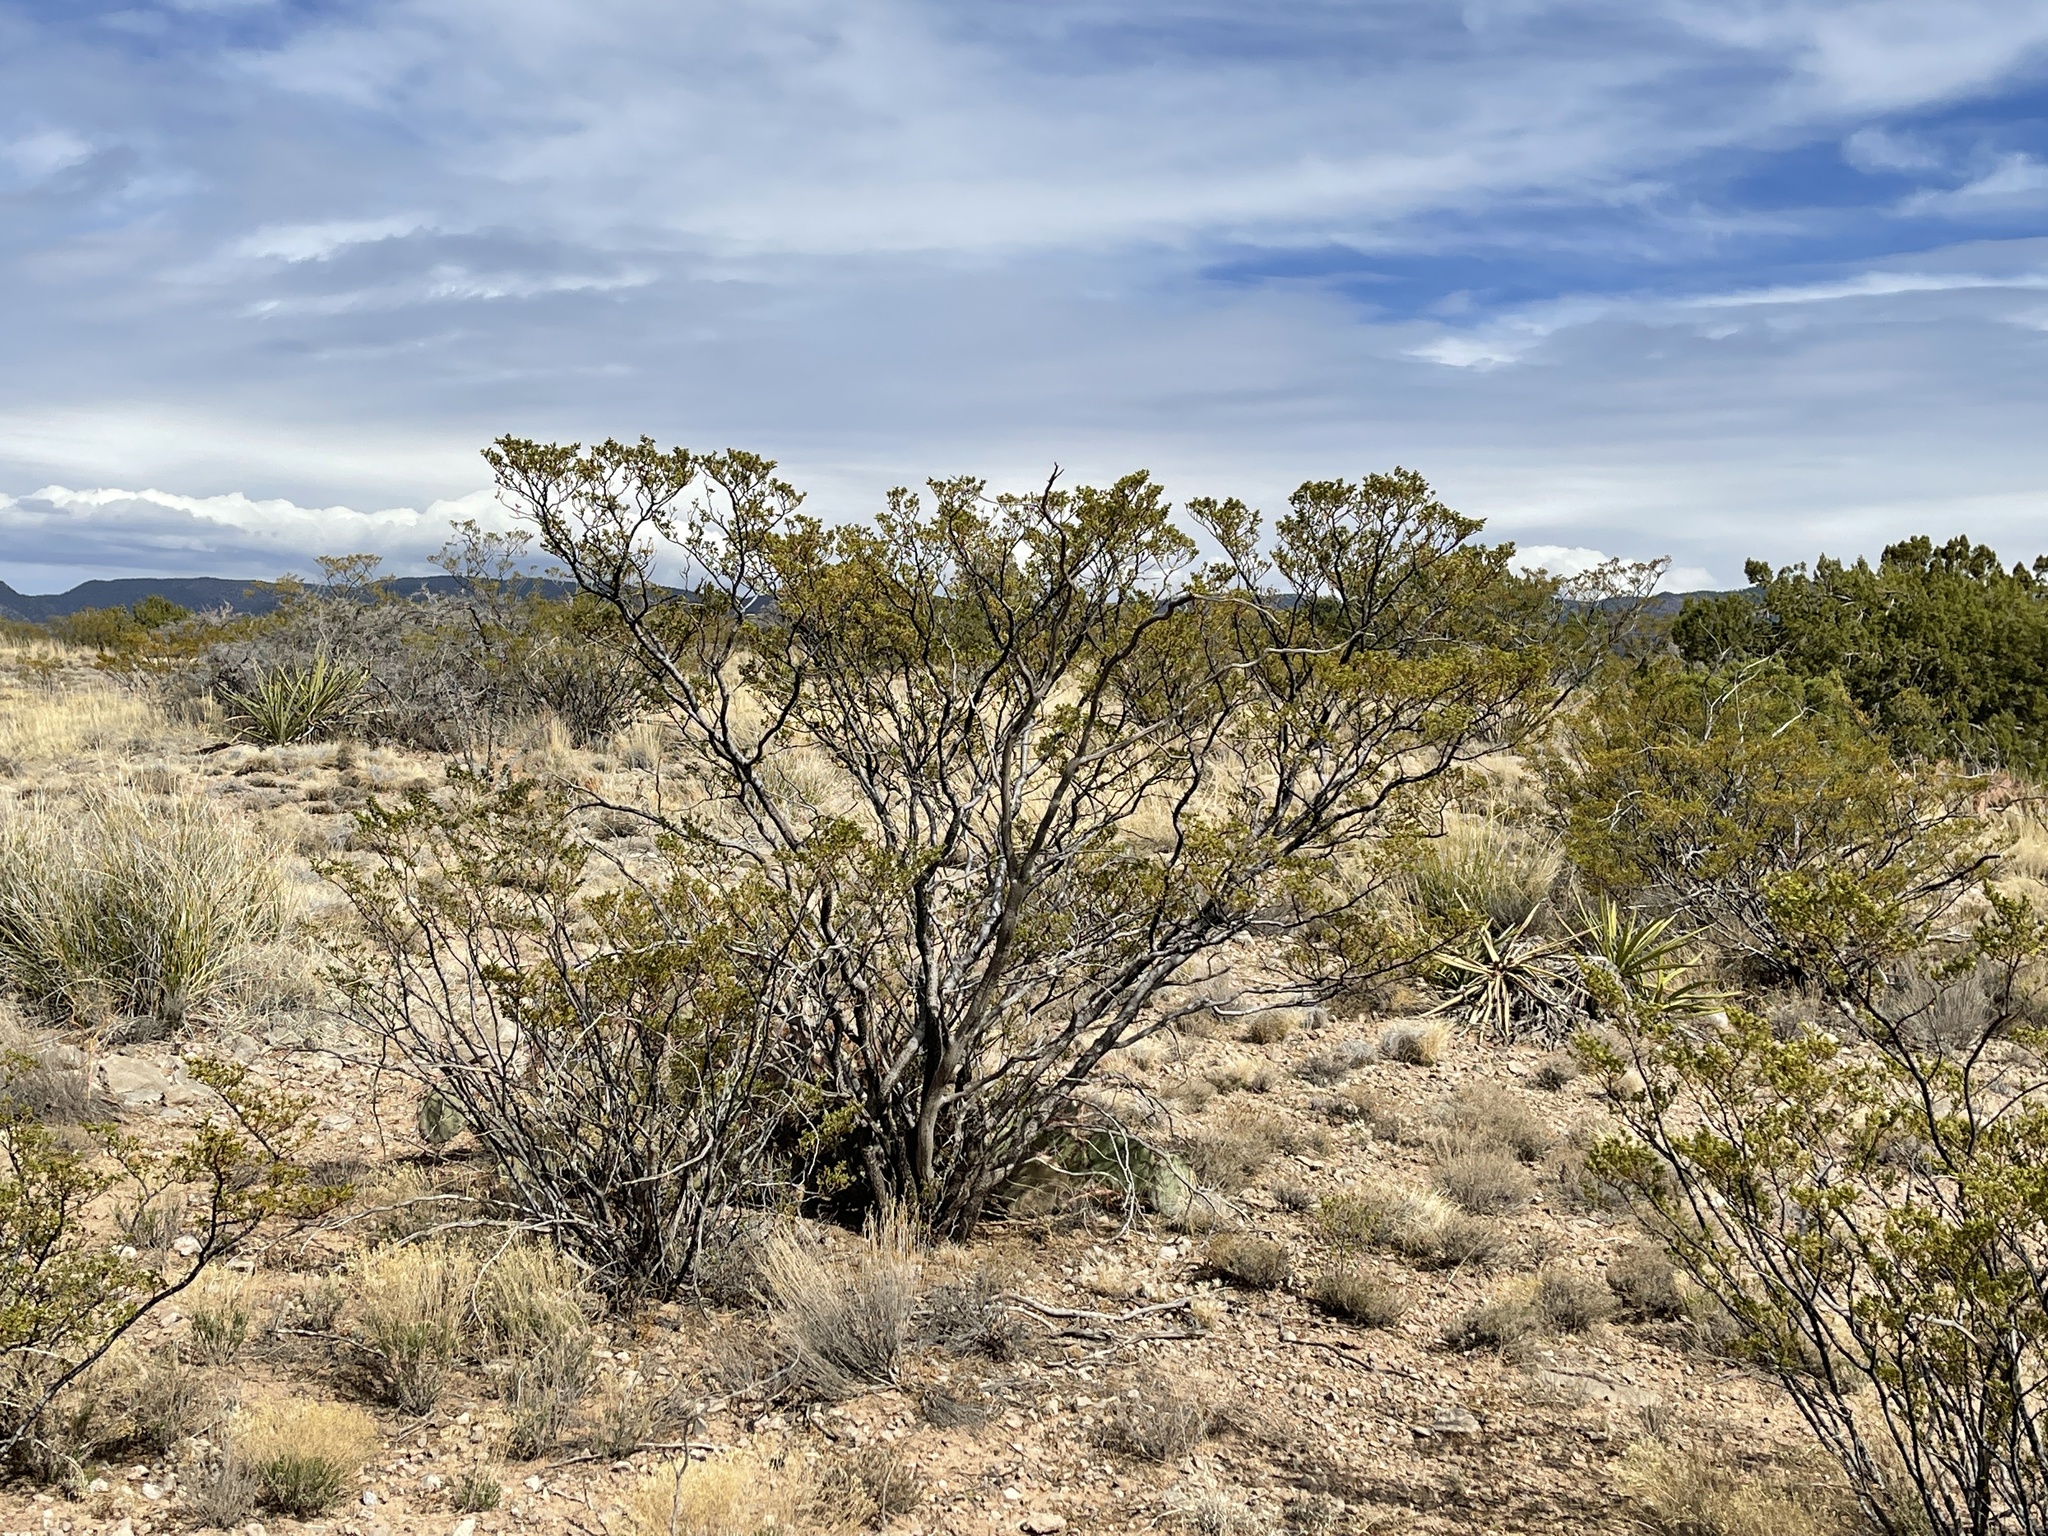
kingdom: Plantae
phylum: Tracheophyta
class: Magnoliopsida
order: Zygophyllales
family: Zygophyllaceae
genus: Larrea
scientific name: Larrea tridentata
